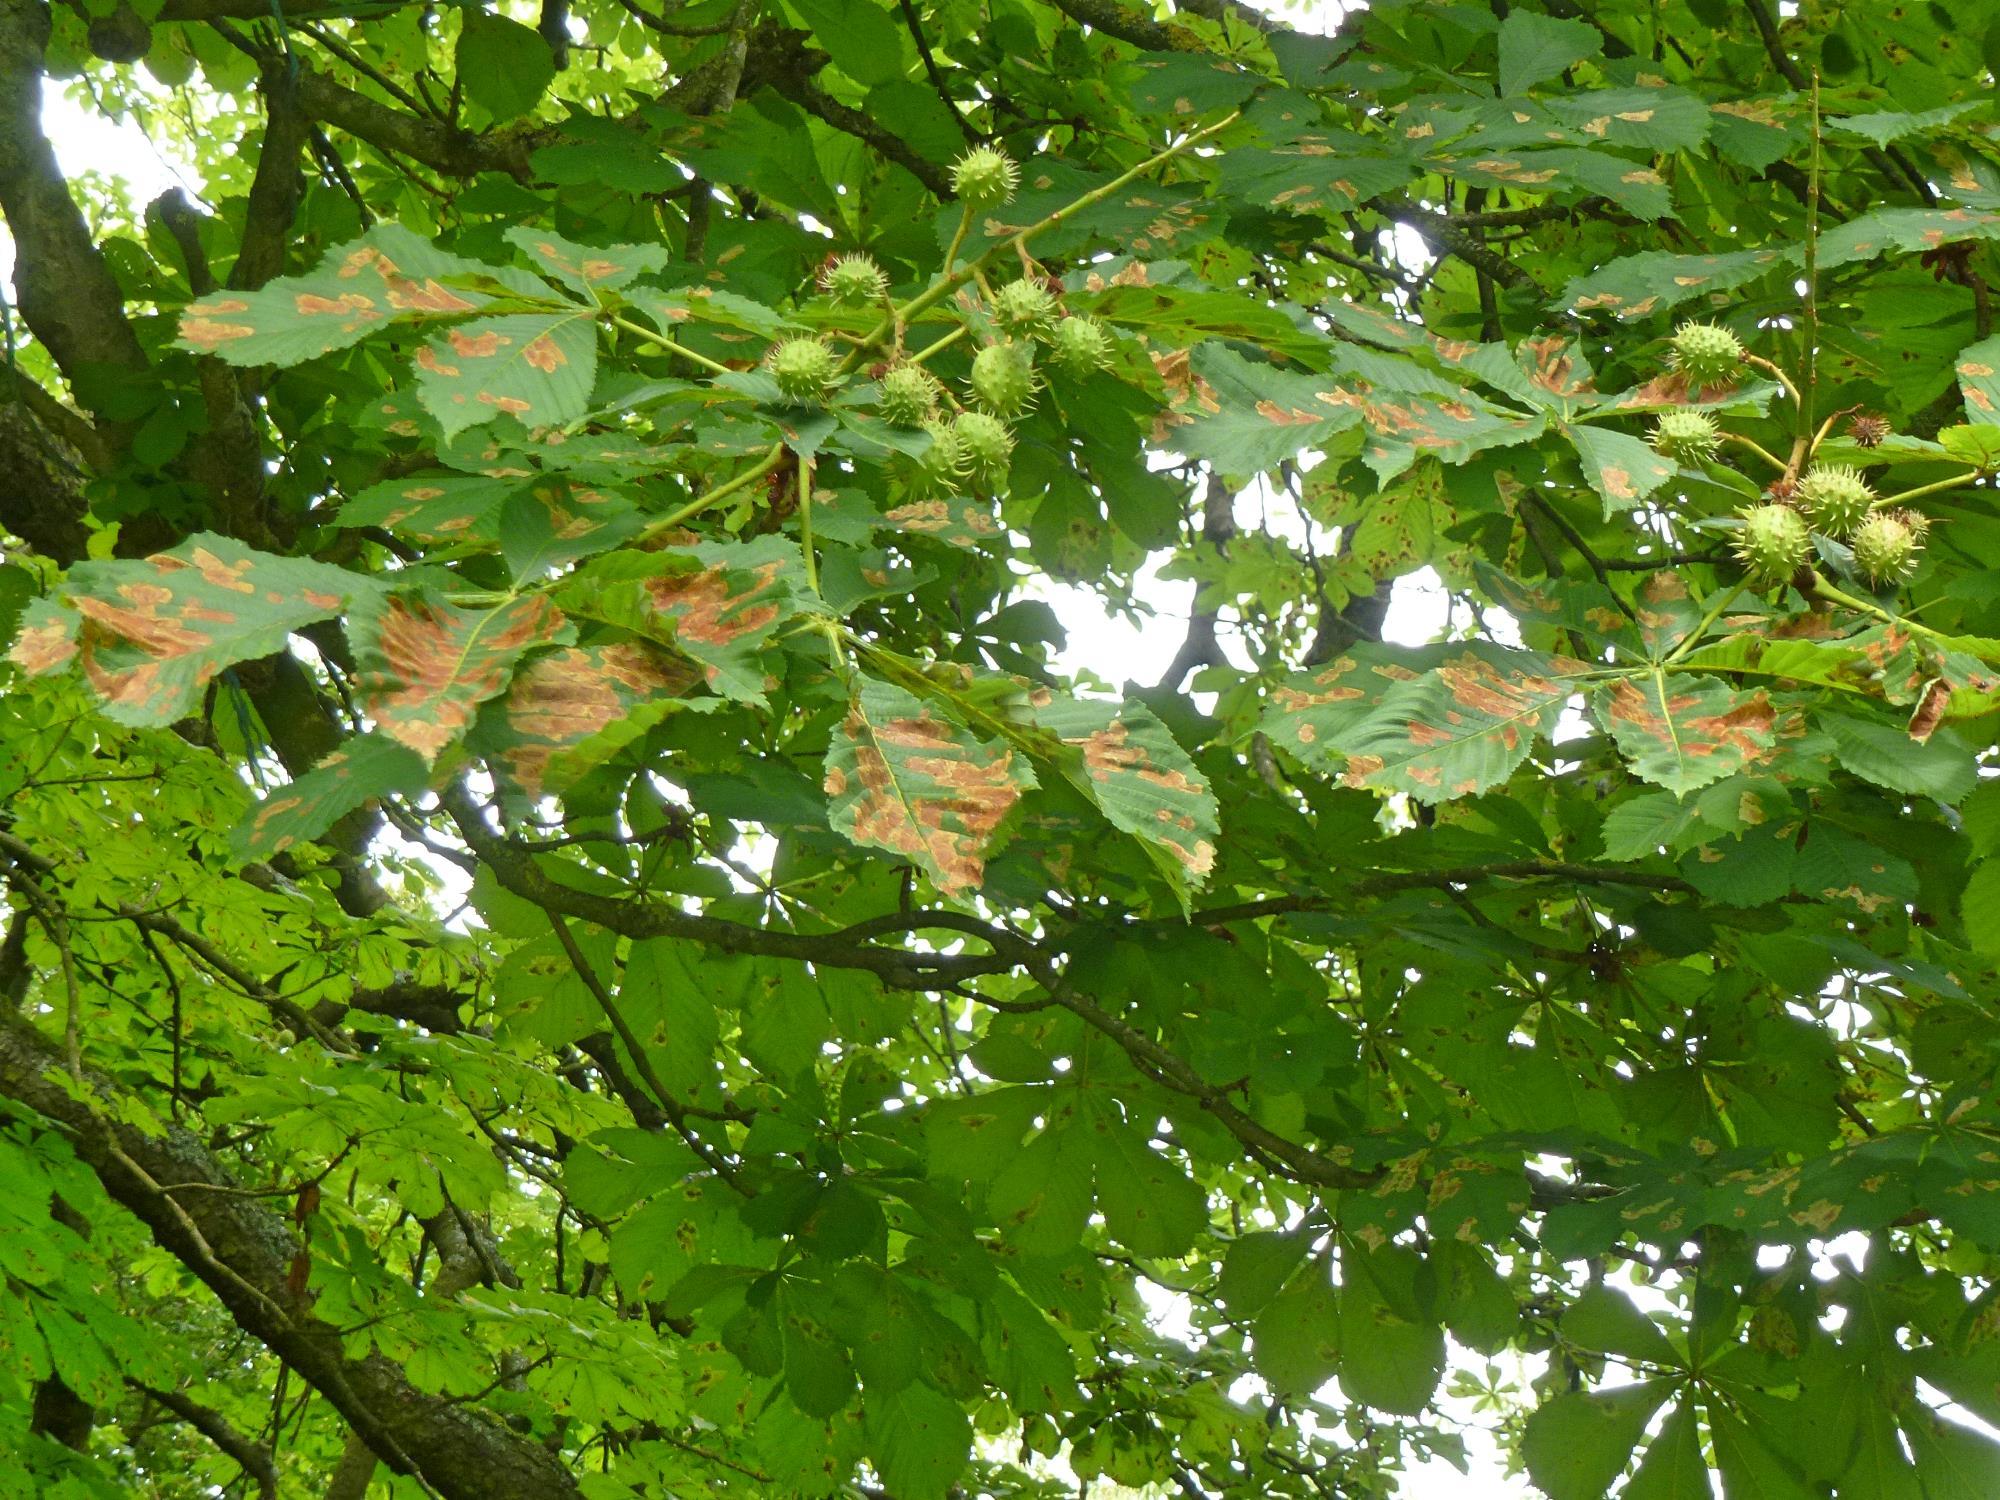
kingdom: Animalia
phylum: Arthropoda
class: Insecta
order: Lepidoptera
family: Gracillariidae
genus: Cameraria
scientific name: Cameraria ohridella
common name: Horse-chestnut leaf-miner
